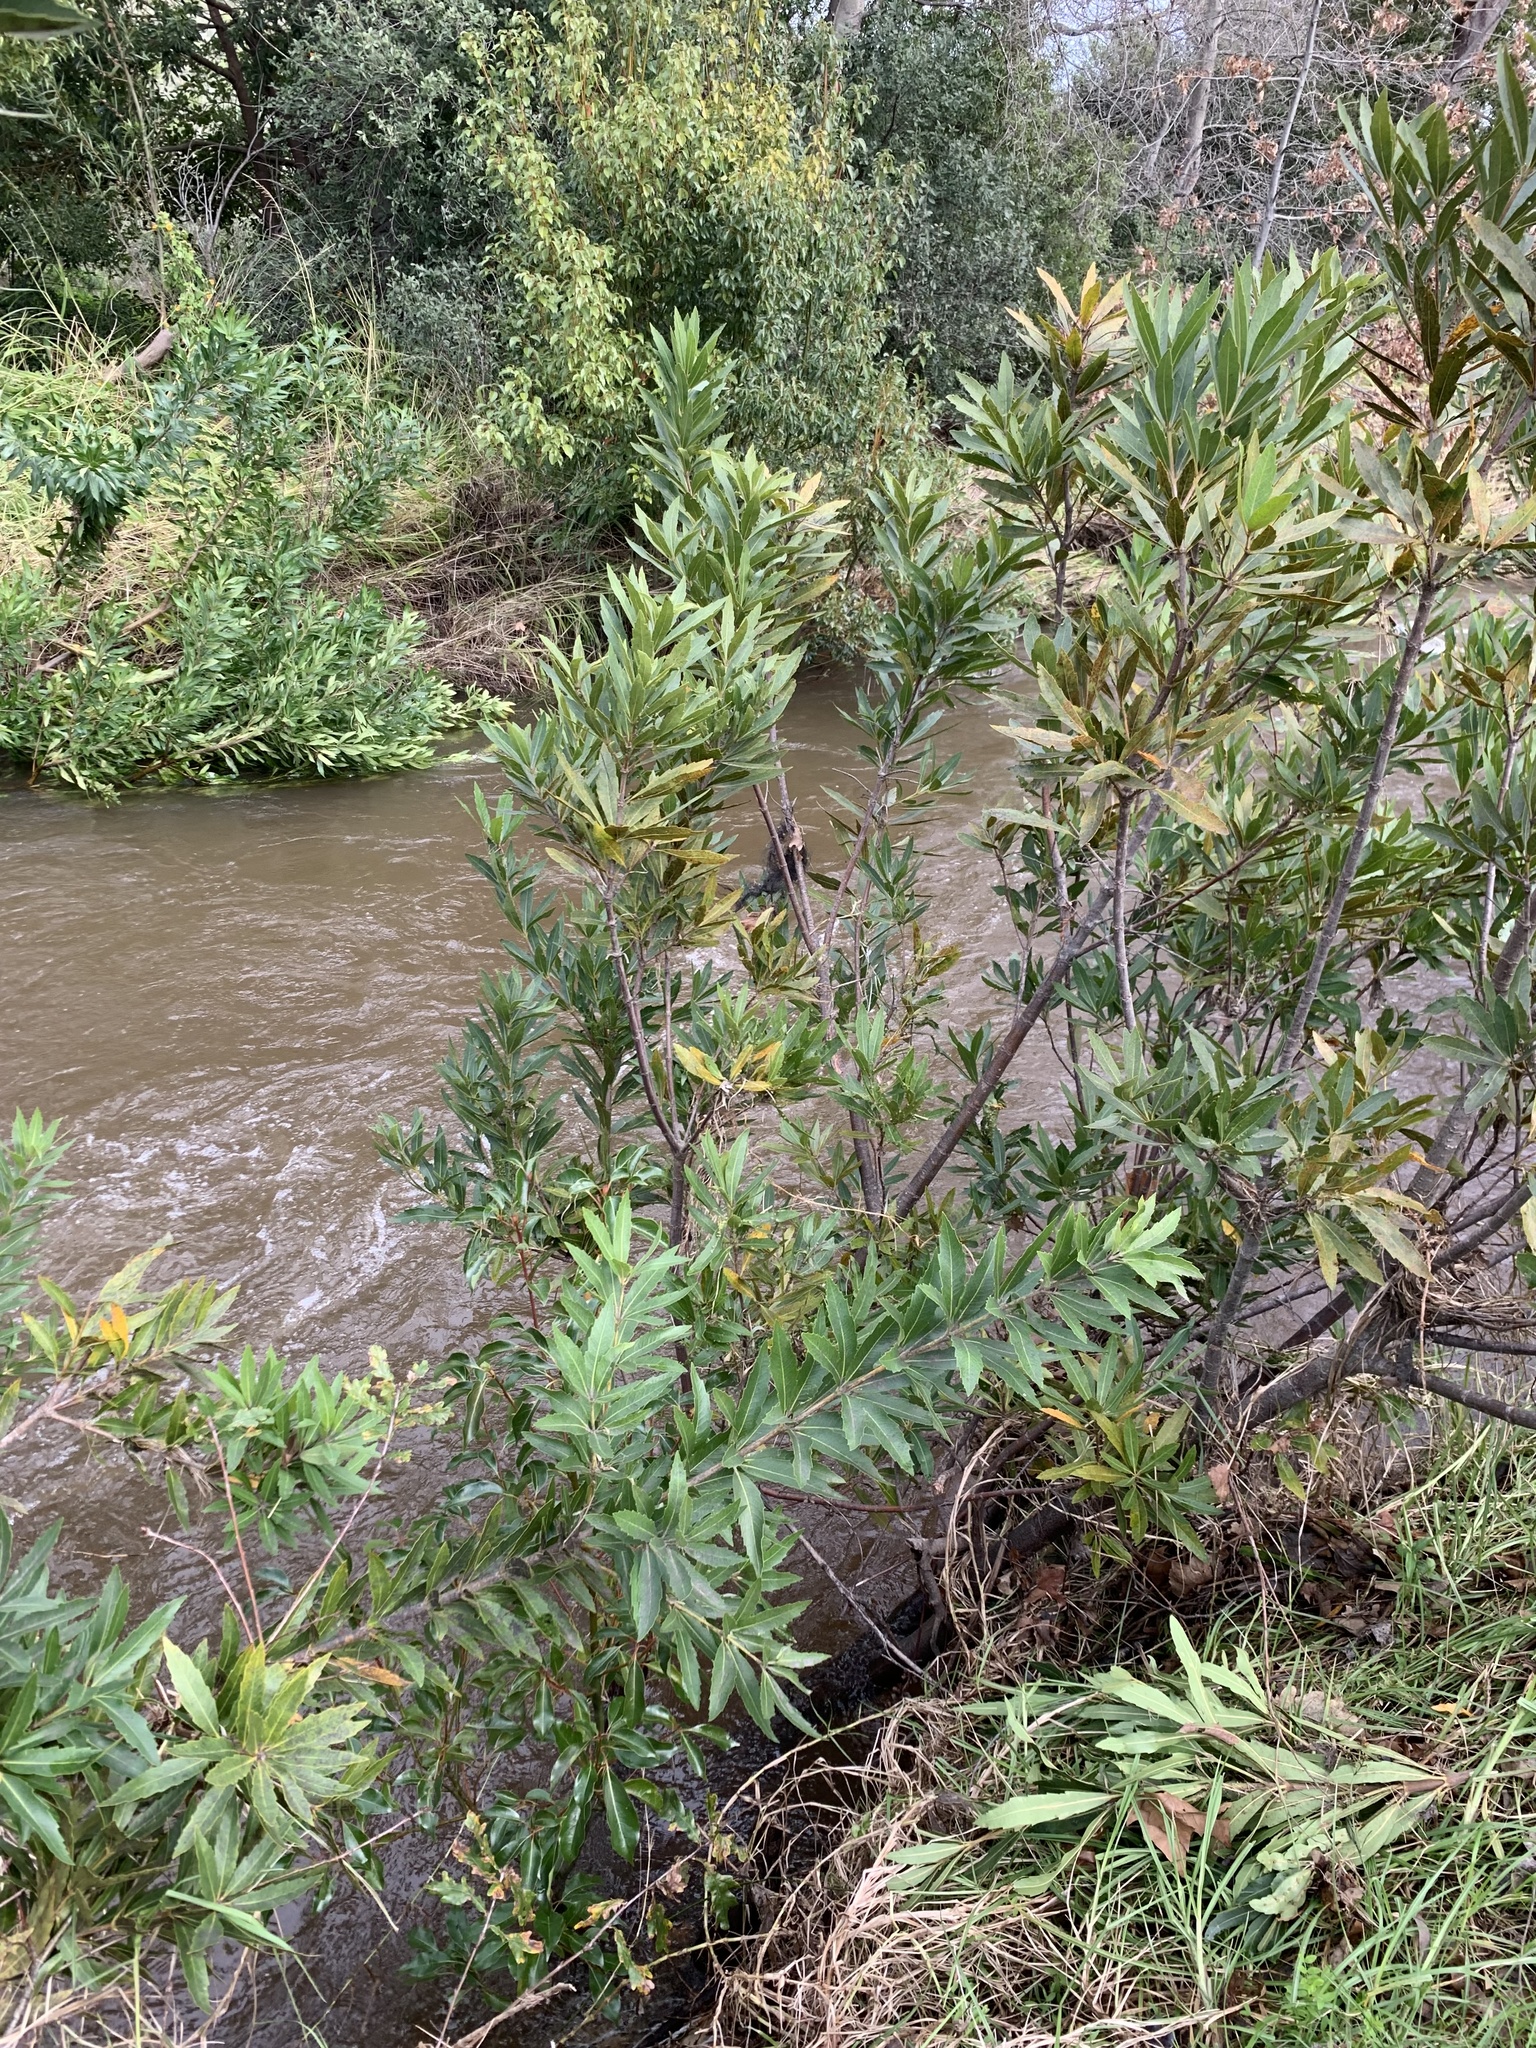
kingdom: Plantae
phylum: Tracheophyta
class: Magnoliopsida
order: Proteales
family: Proteaceae
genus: Brabejum
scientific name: Brabejum stellatifolium
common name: Wild almond
